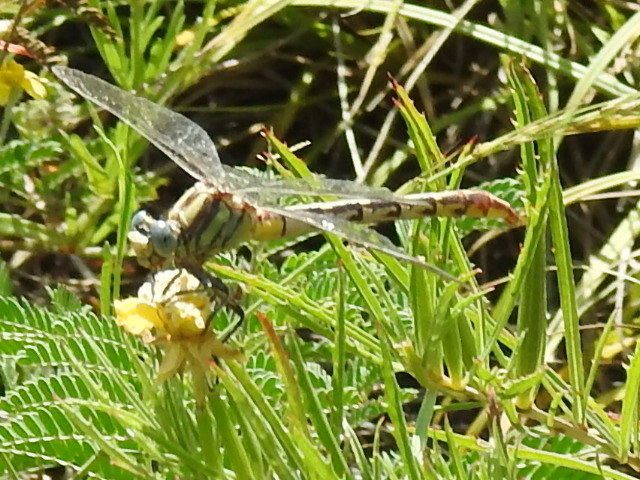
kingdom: Animalia
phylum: Arthropoda
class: Insecta
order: Odonata
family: Gomphidae
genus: Phanogomphus
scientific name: Phanogomphus militaris
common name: Sulphur-tipped clubtail
